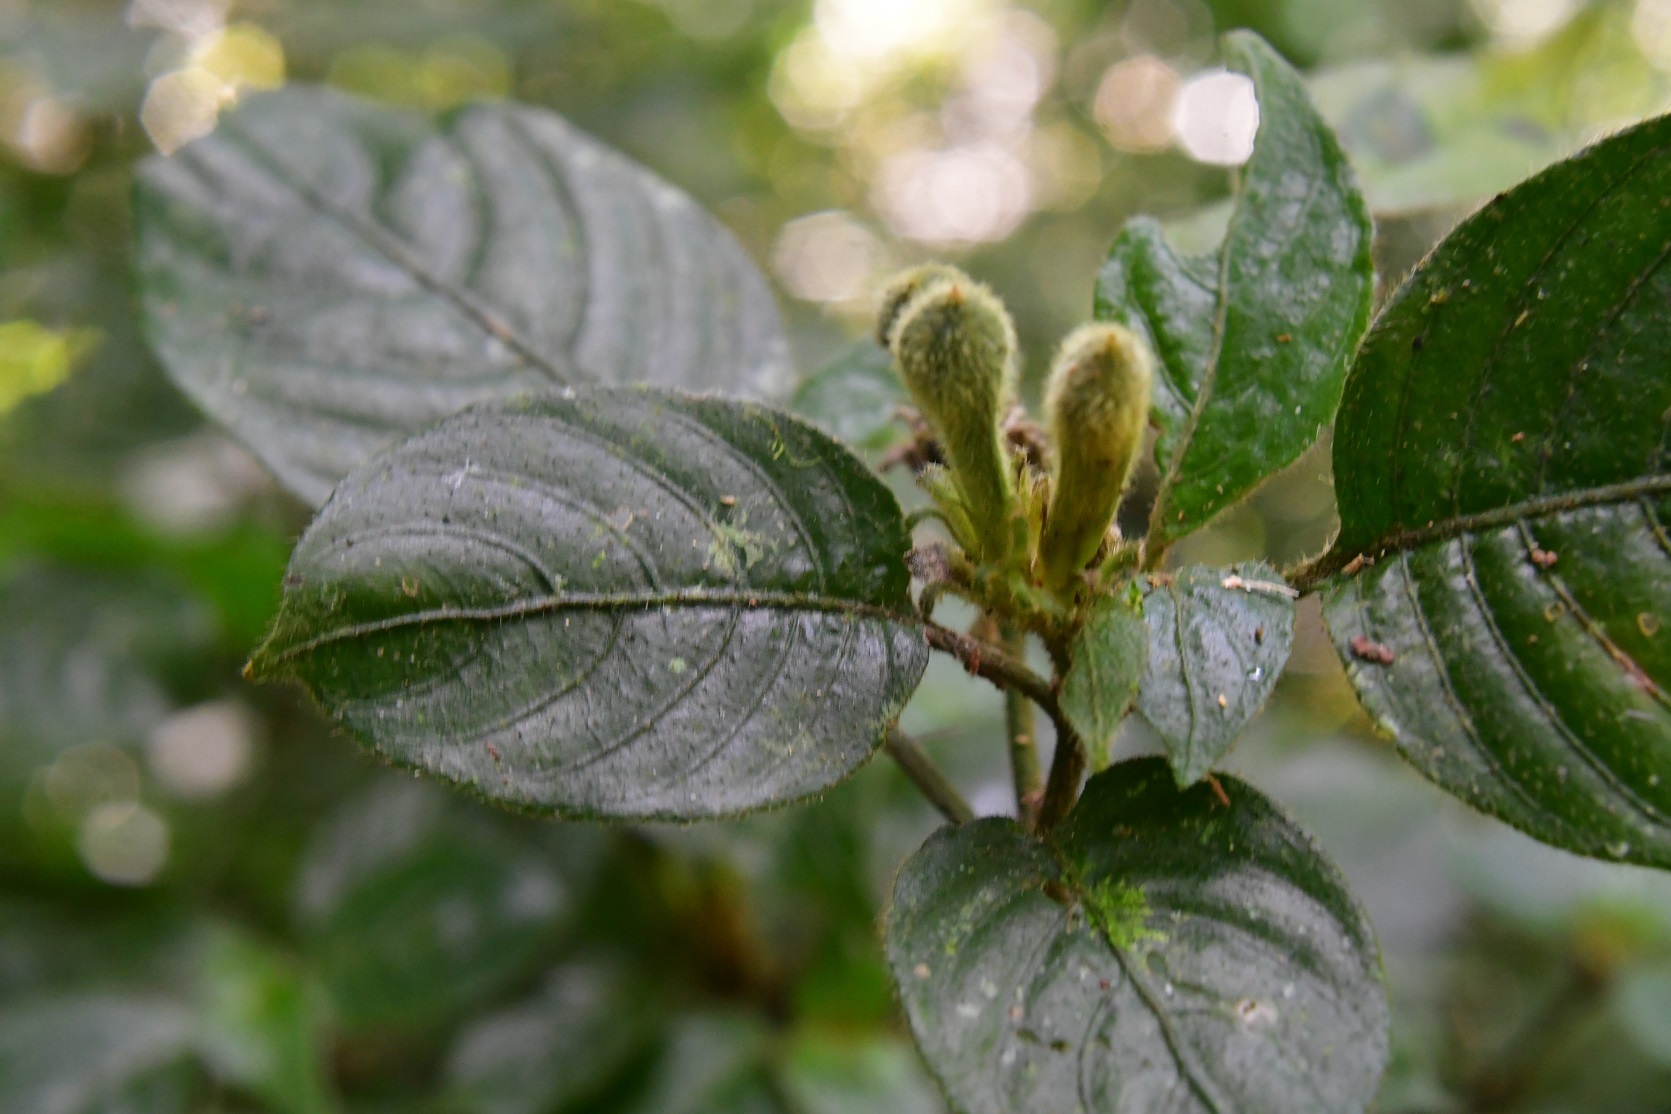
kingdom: Plantae
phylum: Tracheophyta
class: Magnoliopsida
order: Lamiales
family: Acanthaceae
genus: Poikilacanthus
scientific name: Poikilacanthus macranthus
